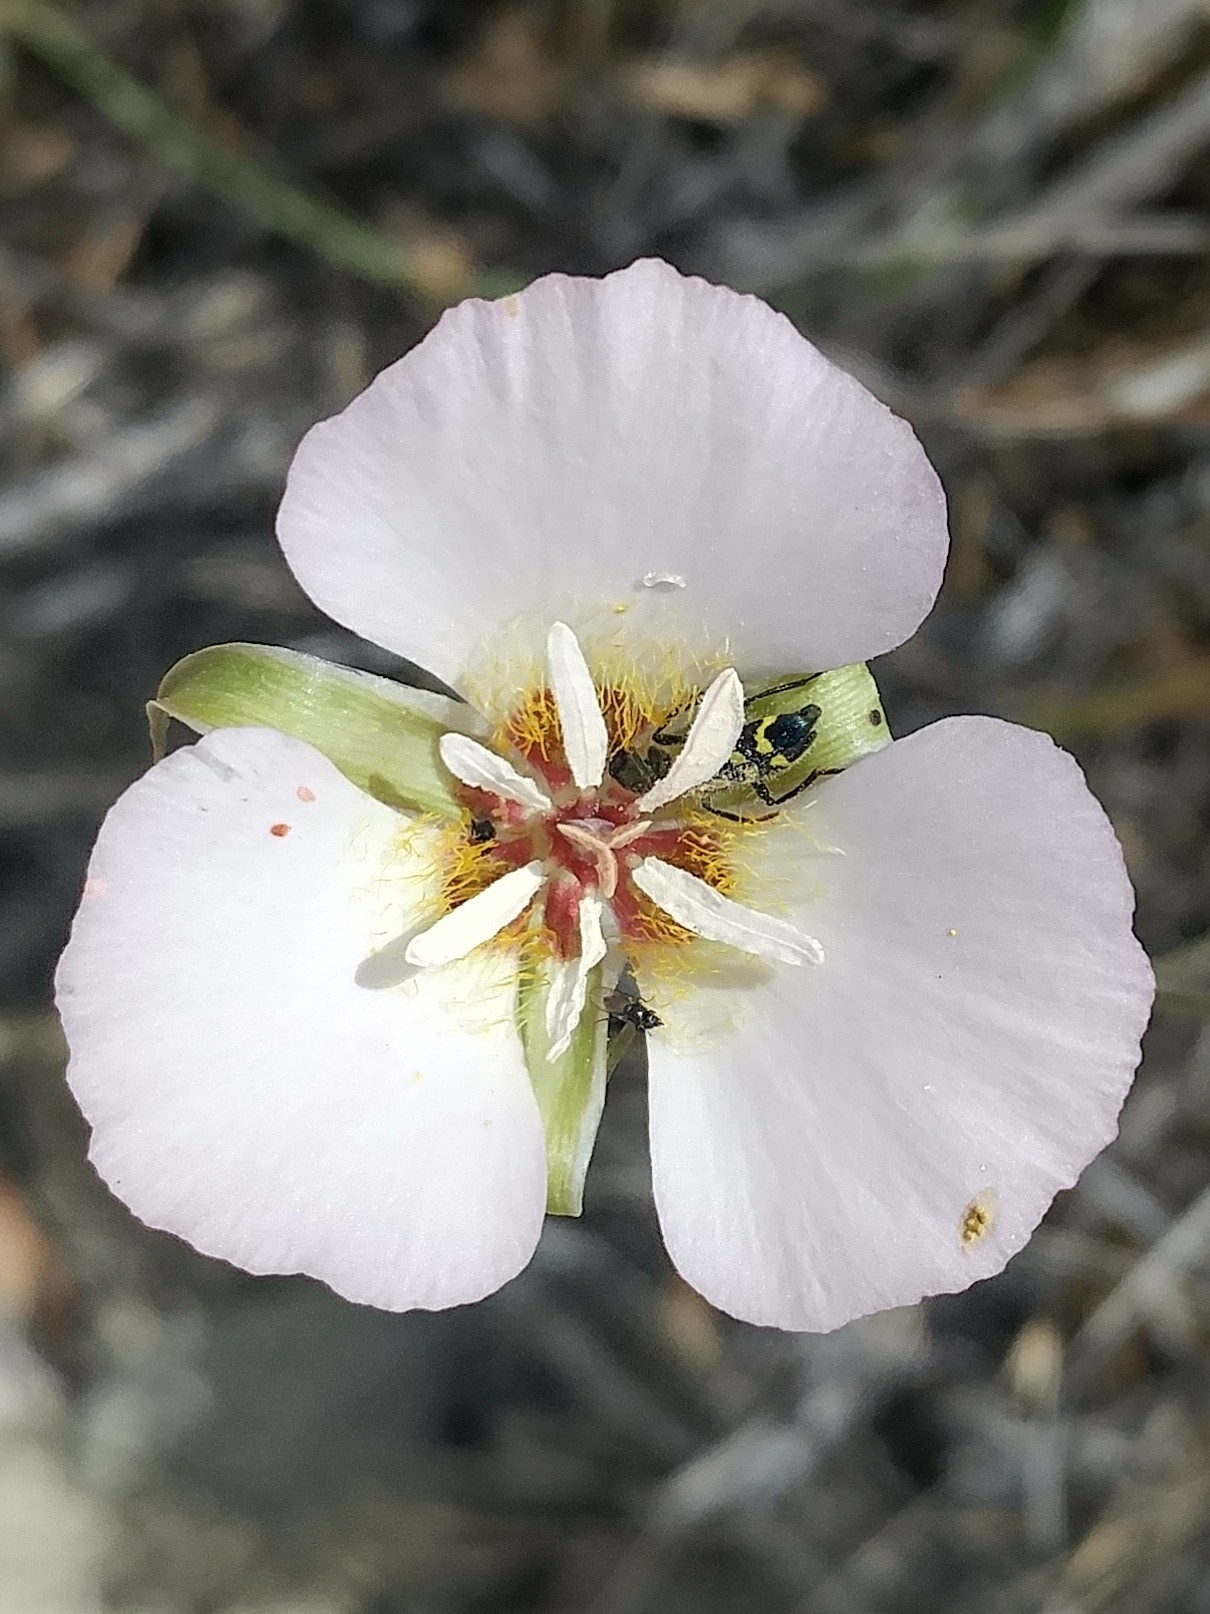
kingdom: Plantae
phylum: Tracheophyta
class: Liliopsida
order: Liliales
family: Liliaceae
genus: Calochortus
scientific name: Calochortus palmeri
